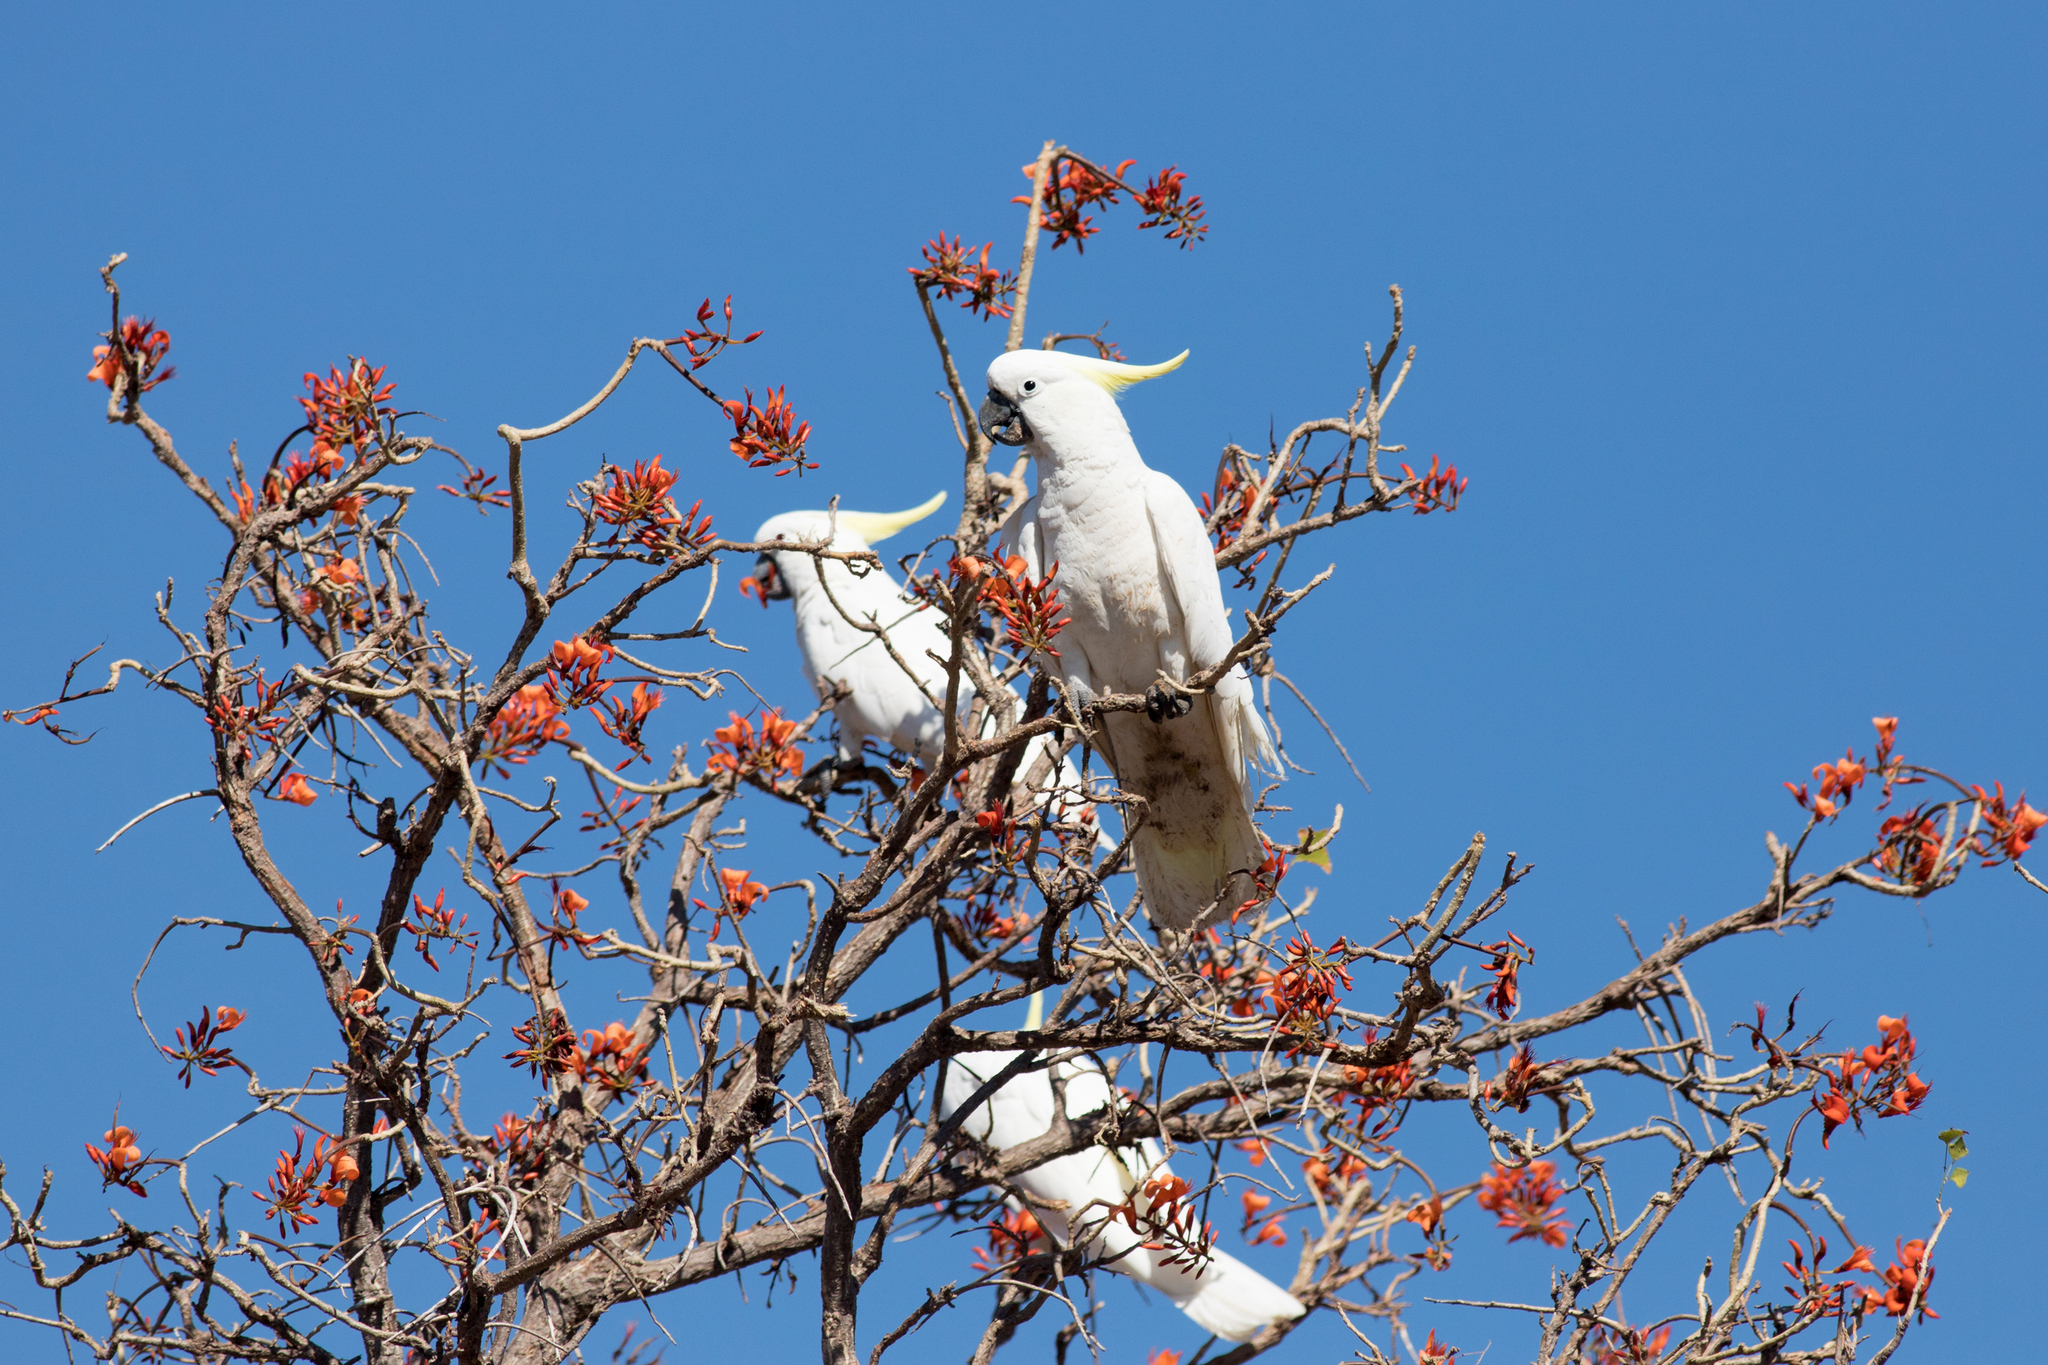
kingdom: Animalia
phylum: Chordata
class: Aves
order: Psittaciformes
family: Psittacidae
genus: Cacatua
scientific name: Cacatua galerita
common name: Sulphur-crested cockatoo
